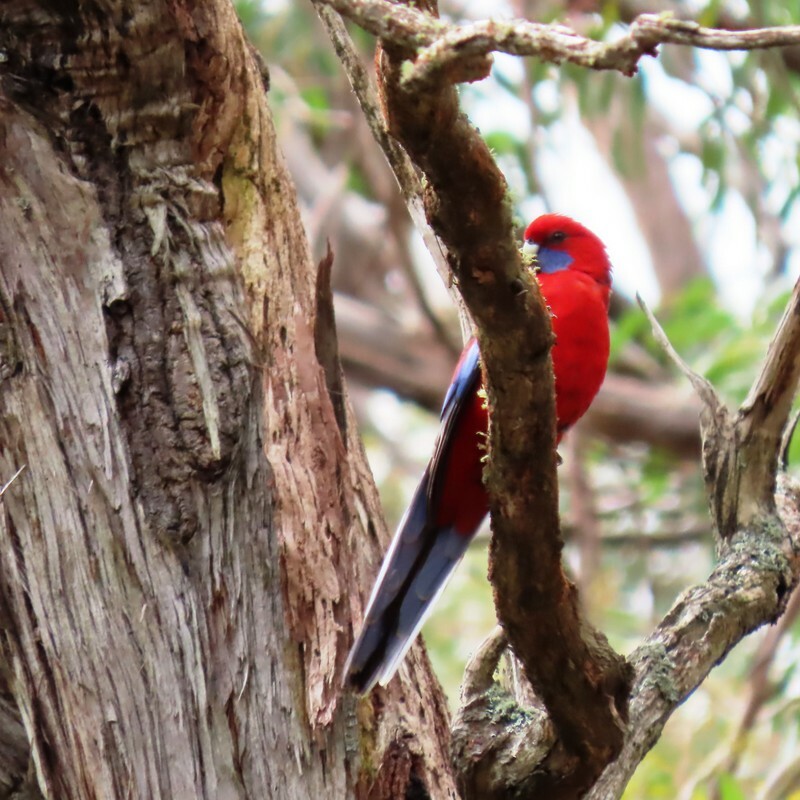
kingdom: Animalia
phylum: Chordata
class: Aves
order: Psittaciformes
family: Psittacidae
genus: Platycercus
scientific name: Platycercus elegans
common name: Crimson rosella
